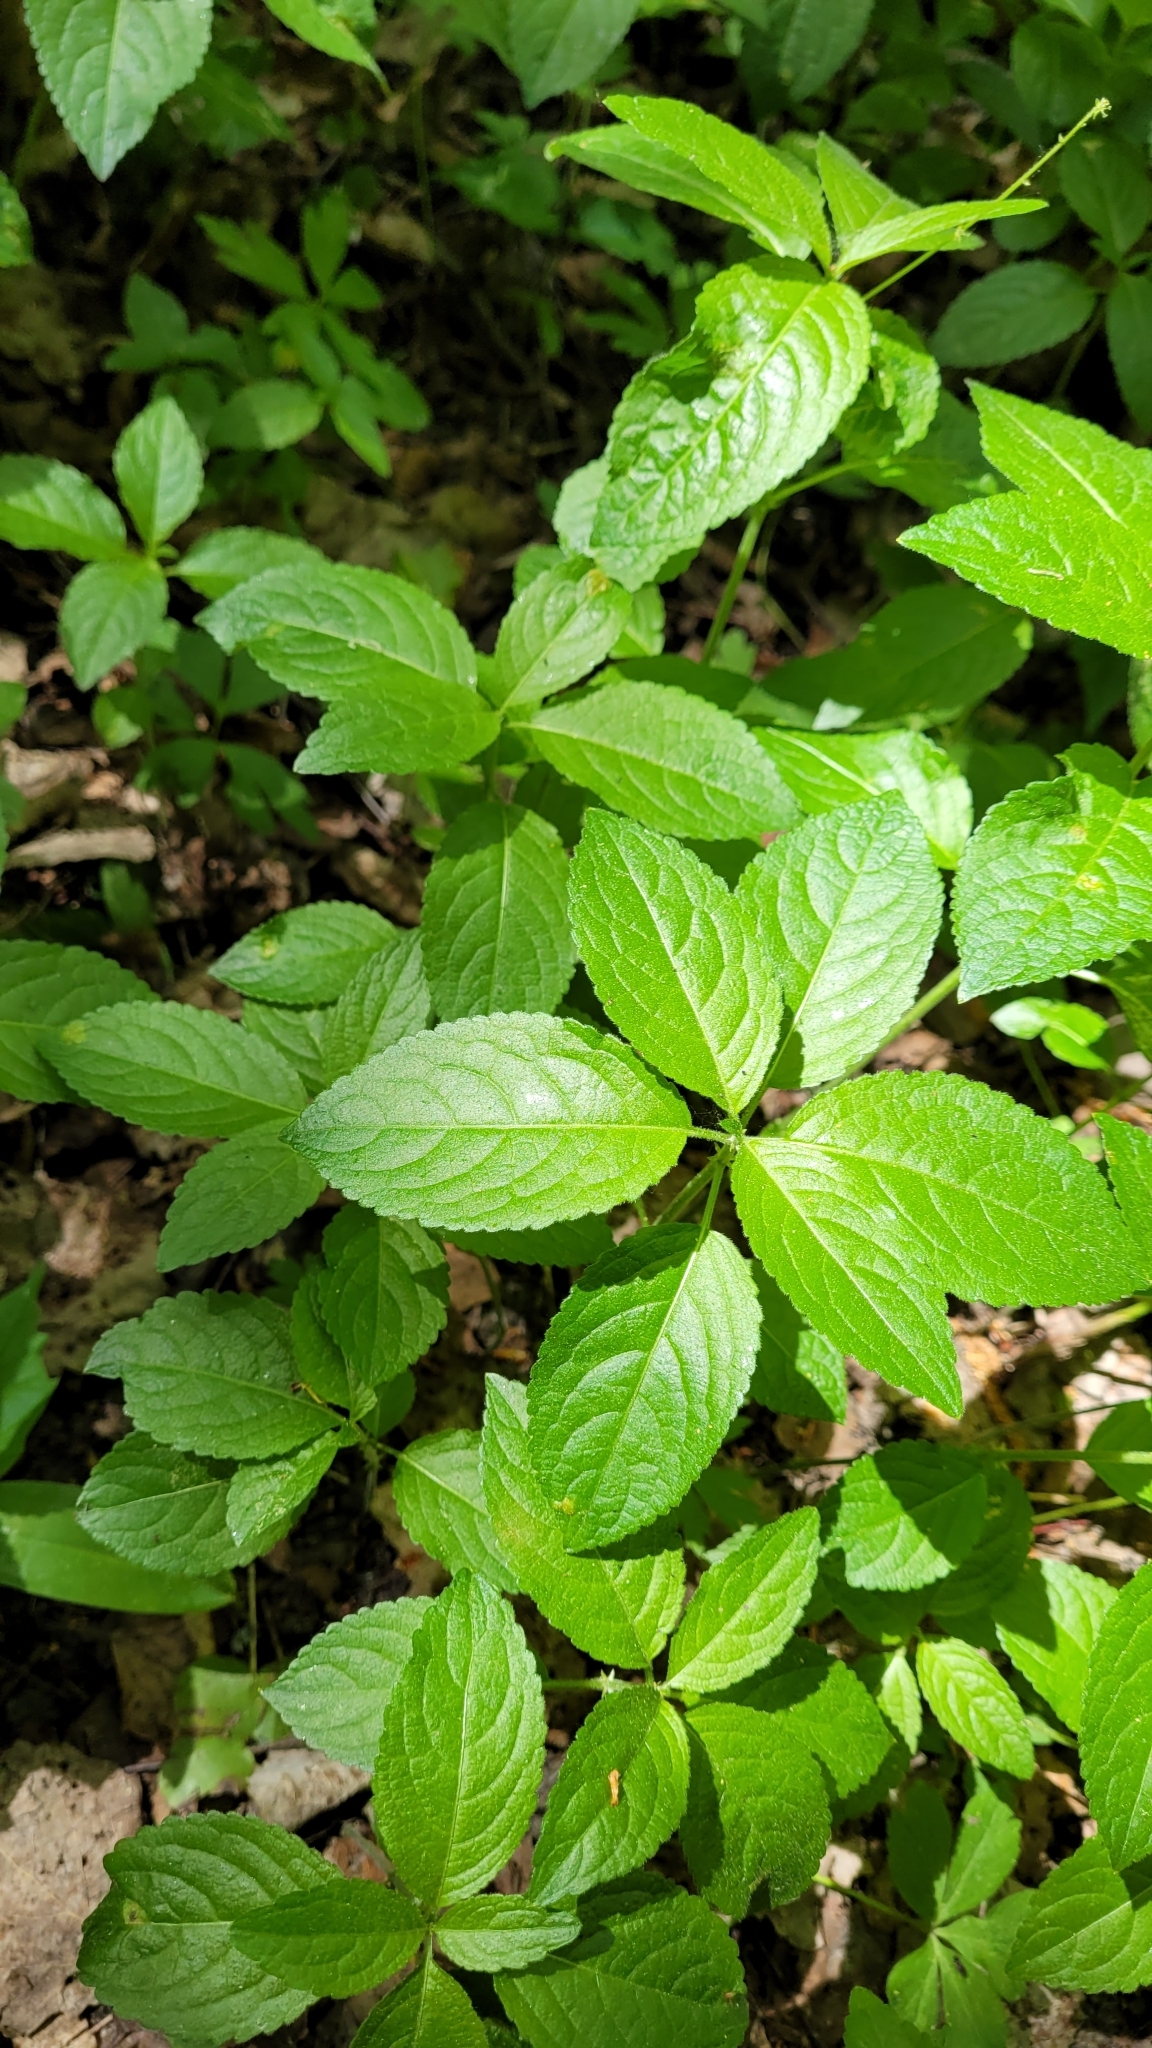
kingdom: Plantae
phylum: Tracheophyta
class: Magnoliopsida
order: Malpighiales
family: Euphorbiaceae
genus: Mercurialis
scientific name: Mercurialis perennis
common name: Dog mercury
